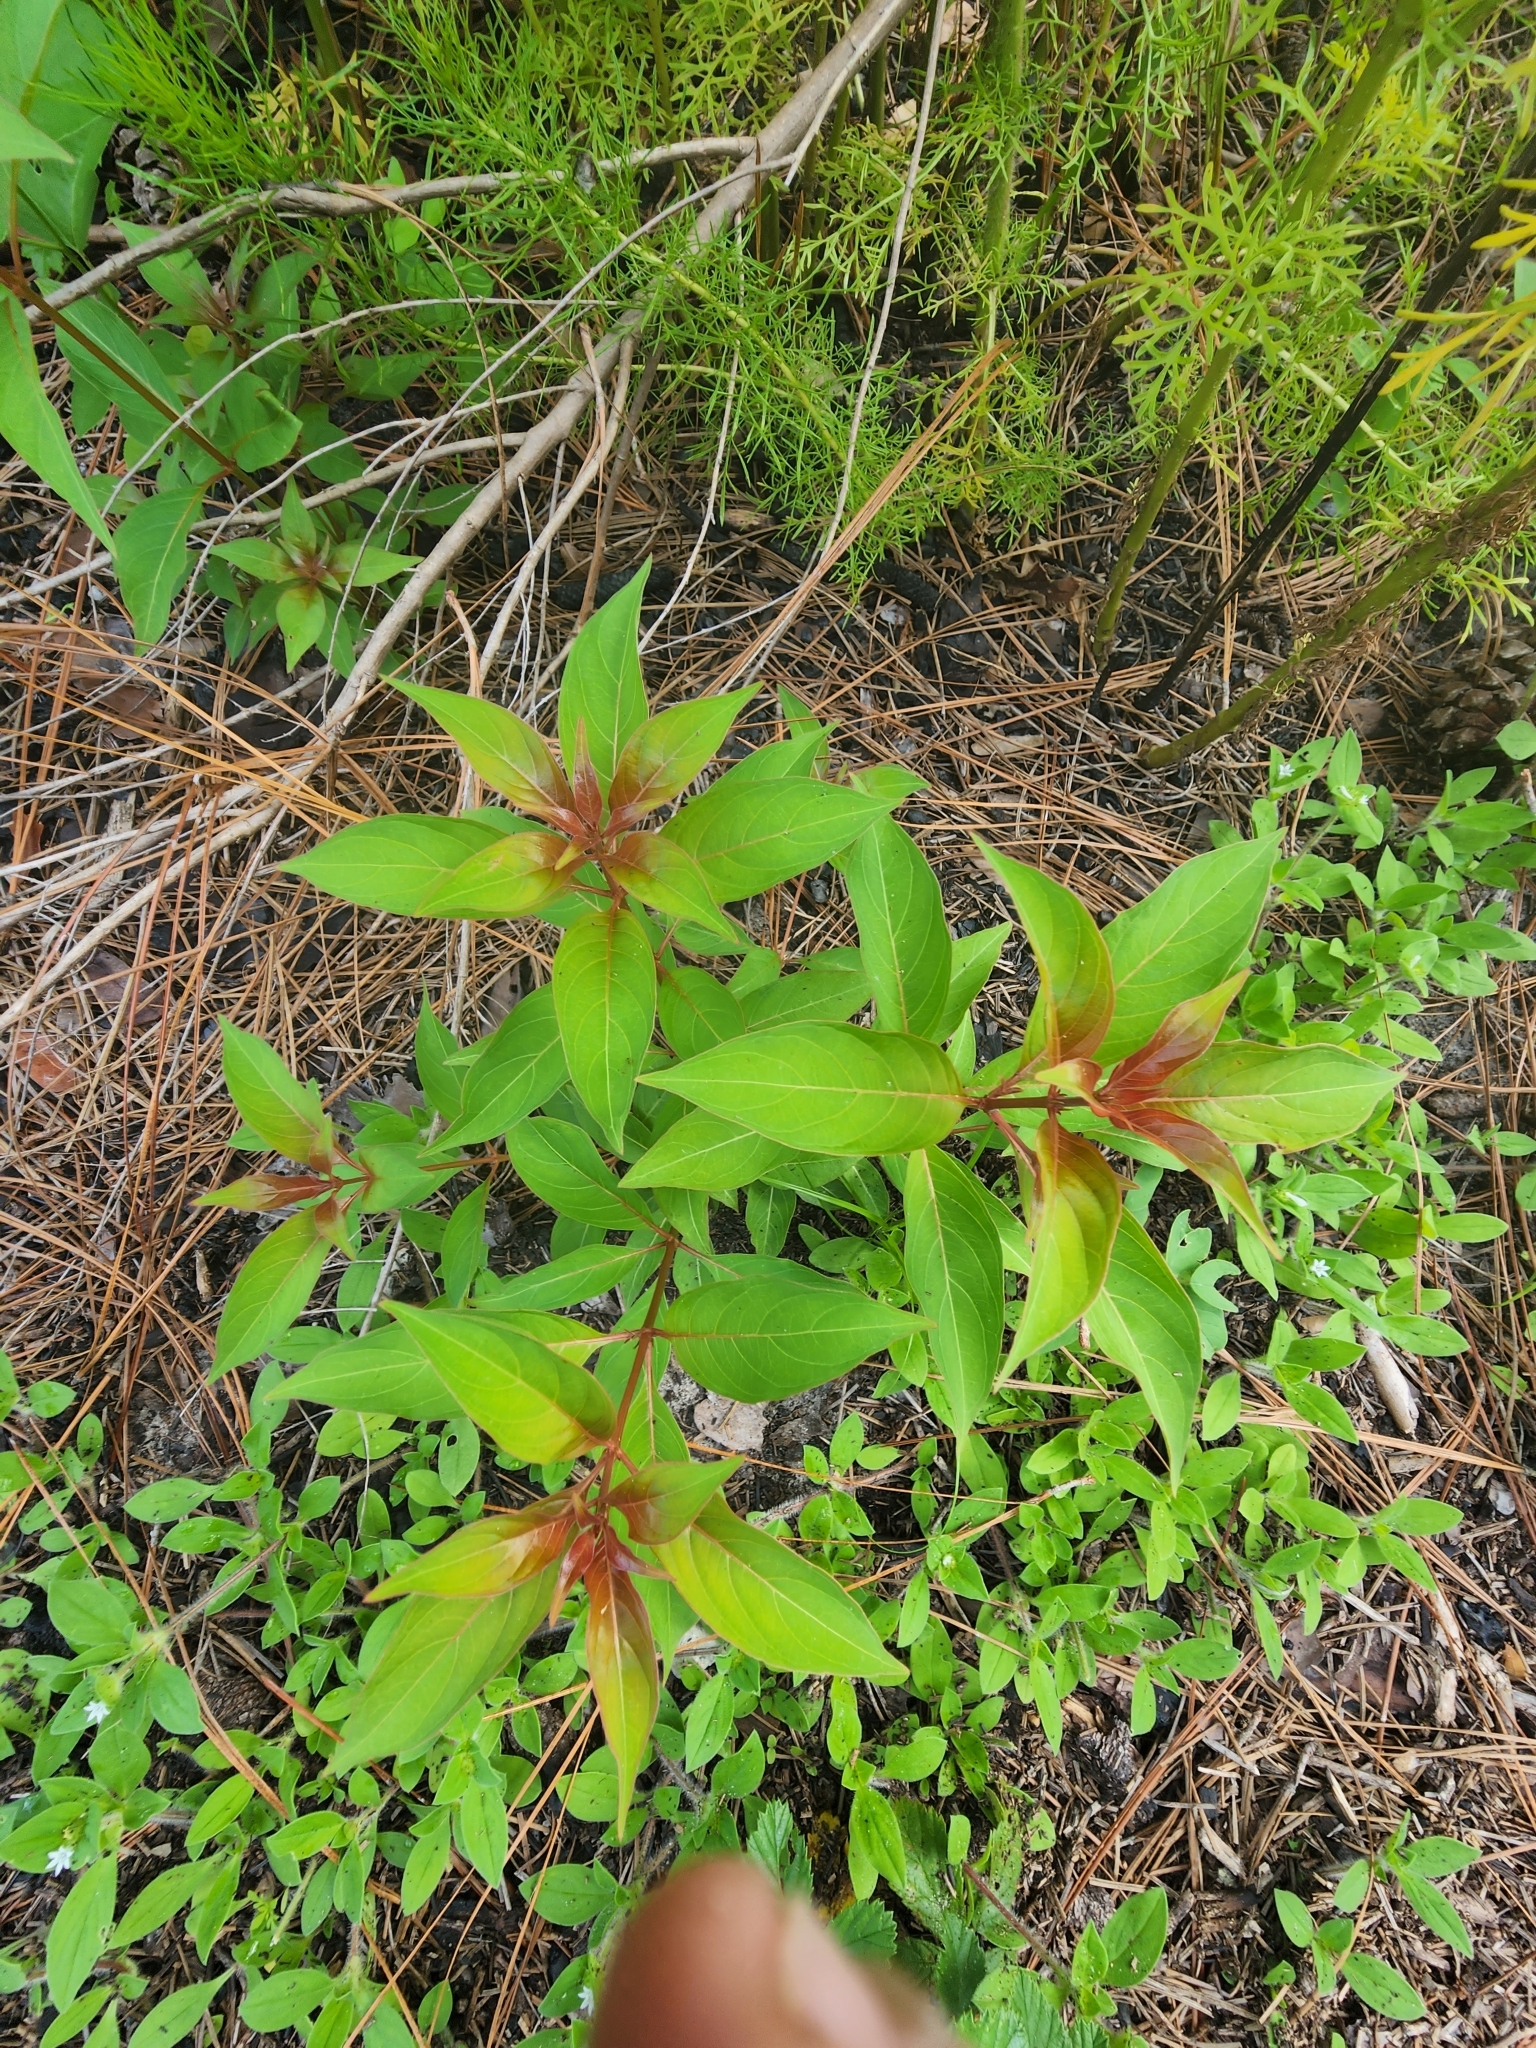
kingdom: Plantae
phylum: Tracheophyta
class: Magnoliopsida
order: Gentianales
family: Rubiaceae
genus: Hamelia
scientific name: Hamelia patens
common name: Redhead
